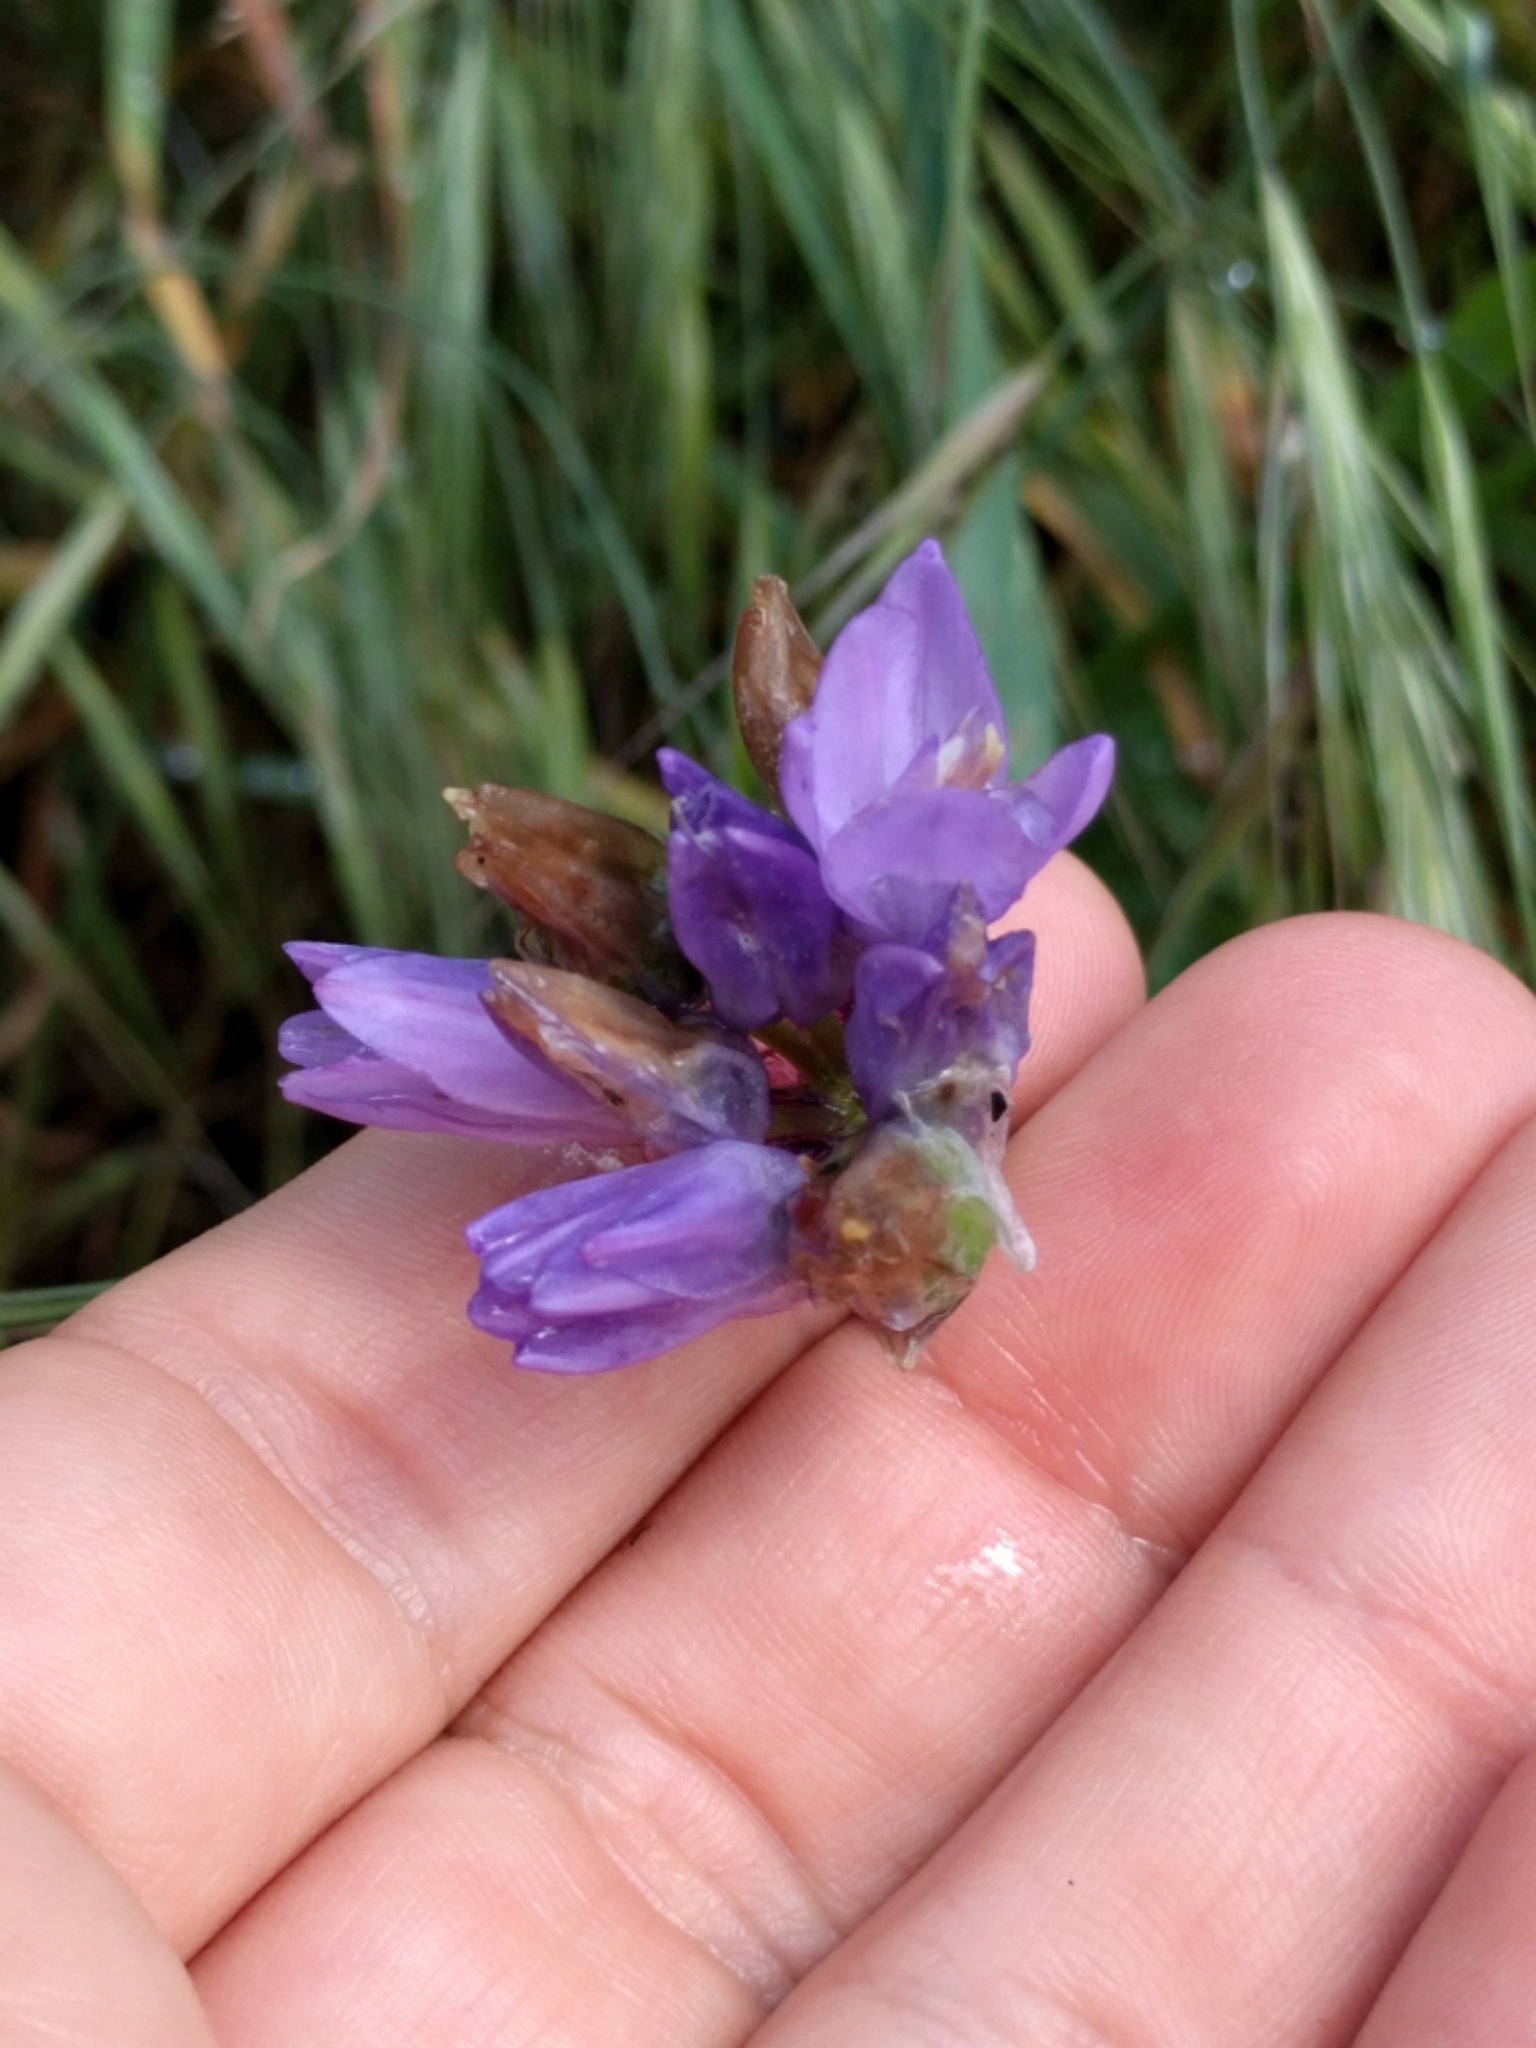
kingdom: Plantae
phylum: Tracheophyta
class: Liliopsida
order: Asparagales
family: Asparagaceae
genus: Dipterostemon
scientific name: Dipterostemon capitatus
